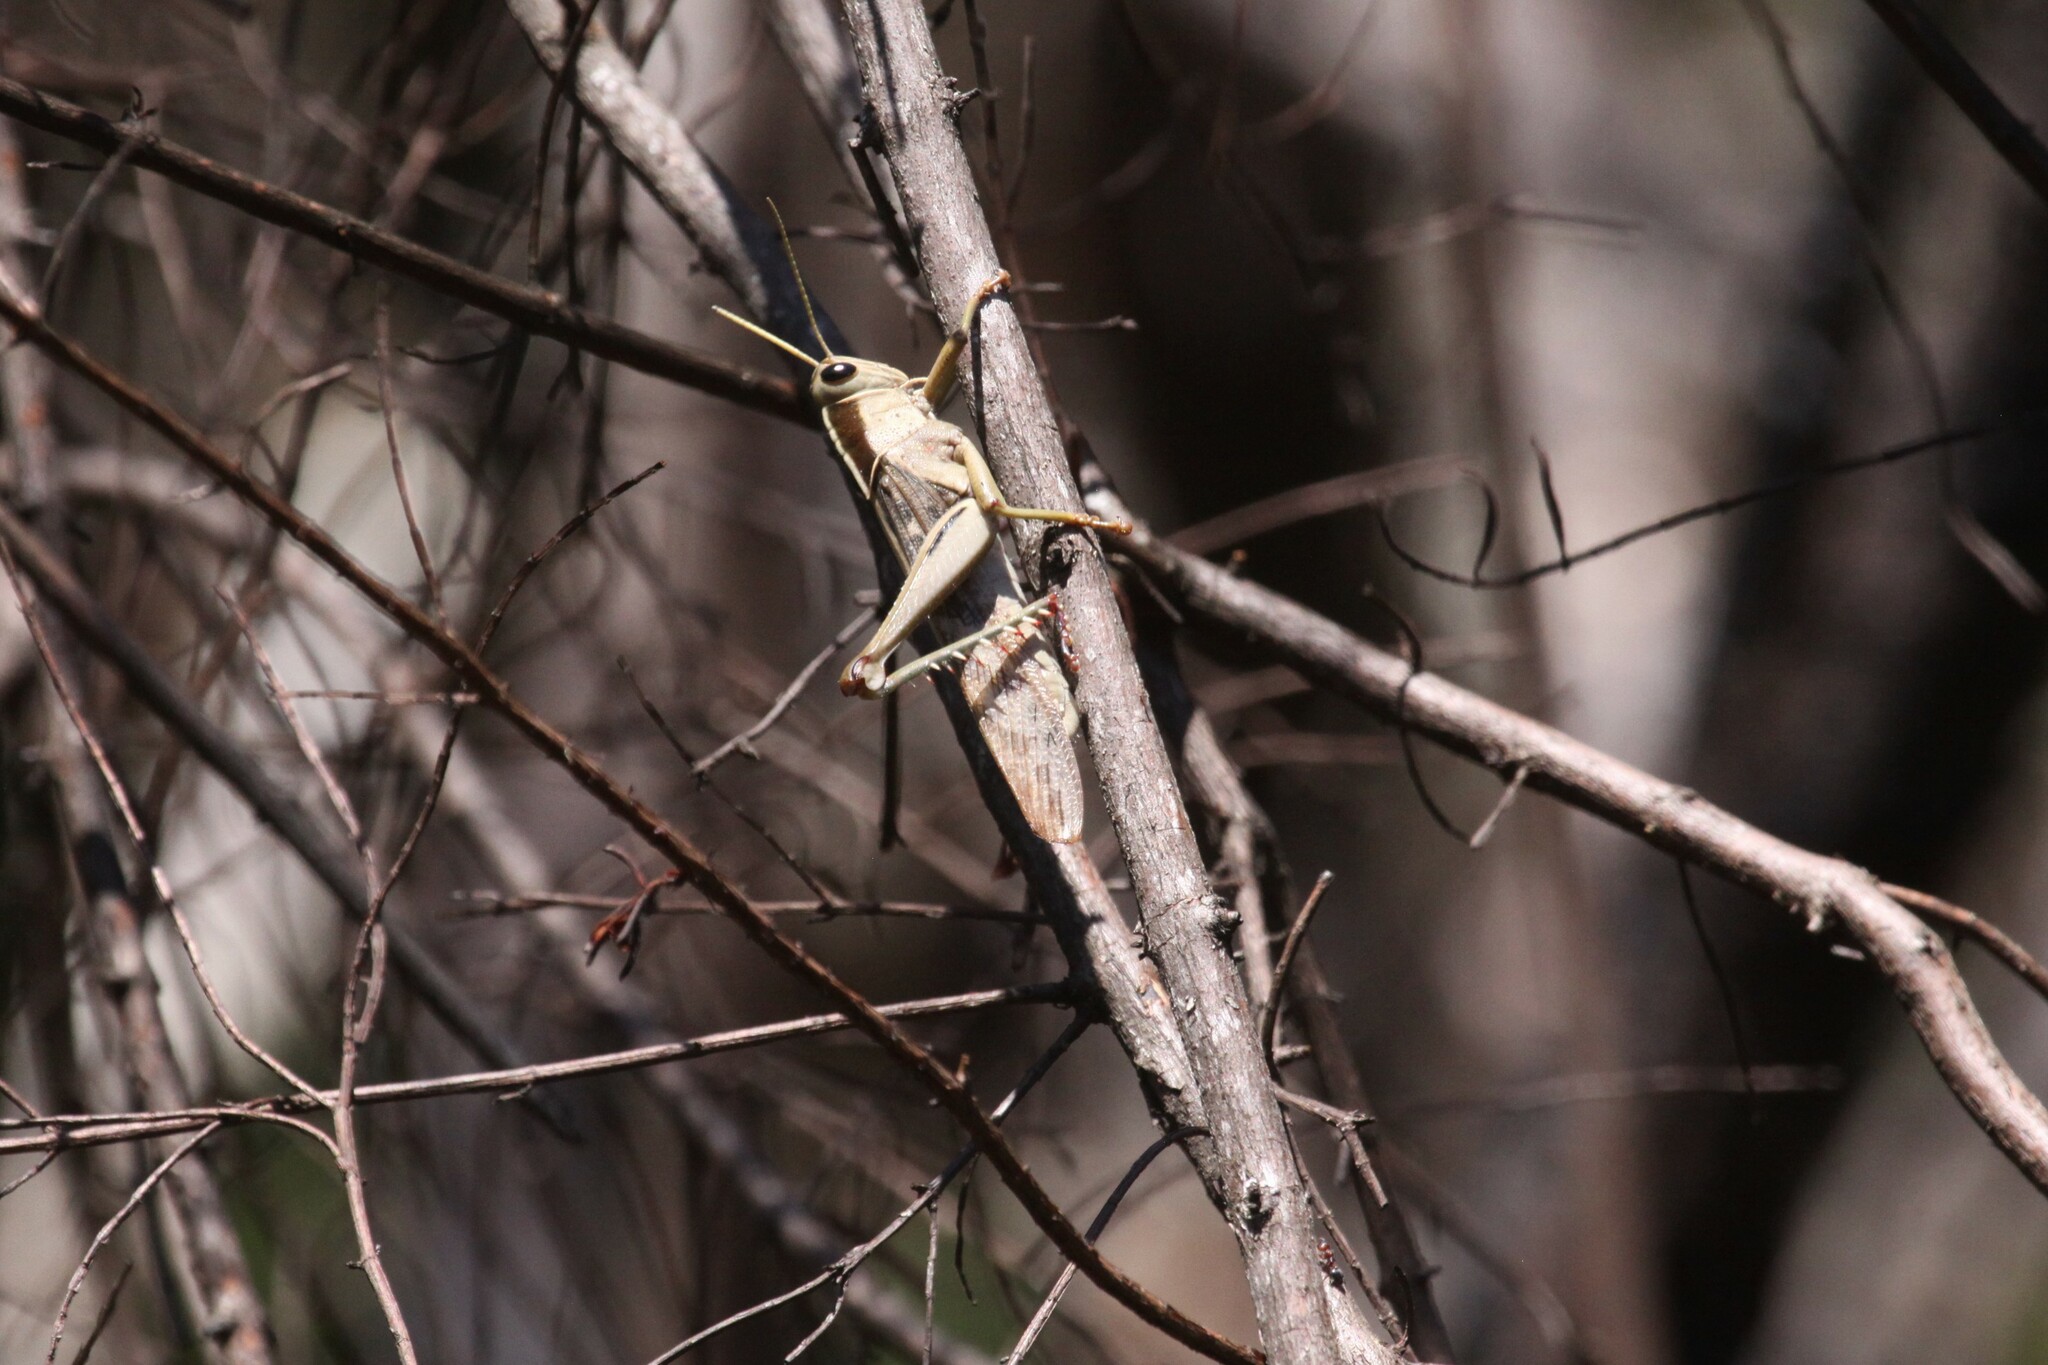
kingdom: Animalia
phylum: Arthropoda
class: Insecta
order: Orthoptera
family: Acrididae
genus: Acanthacris
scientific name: Acanthacris ruficornis
